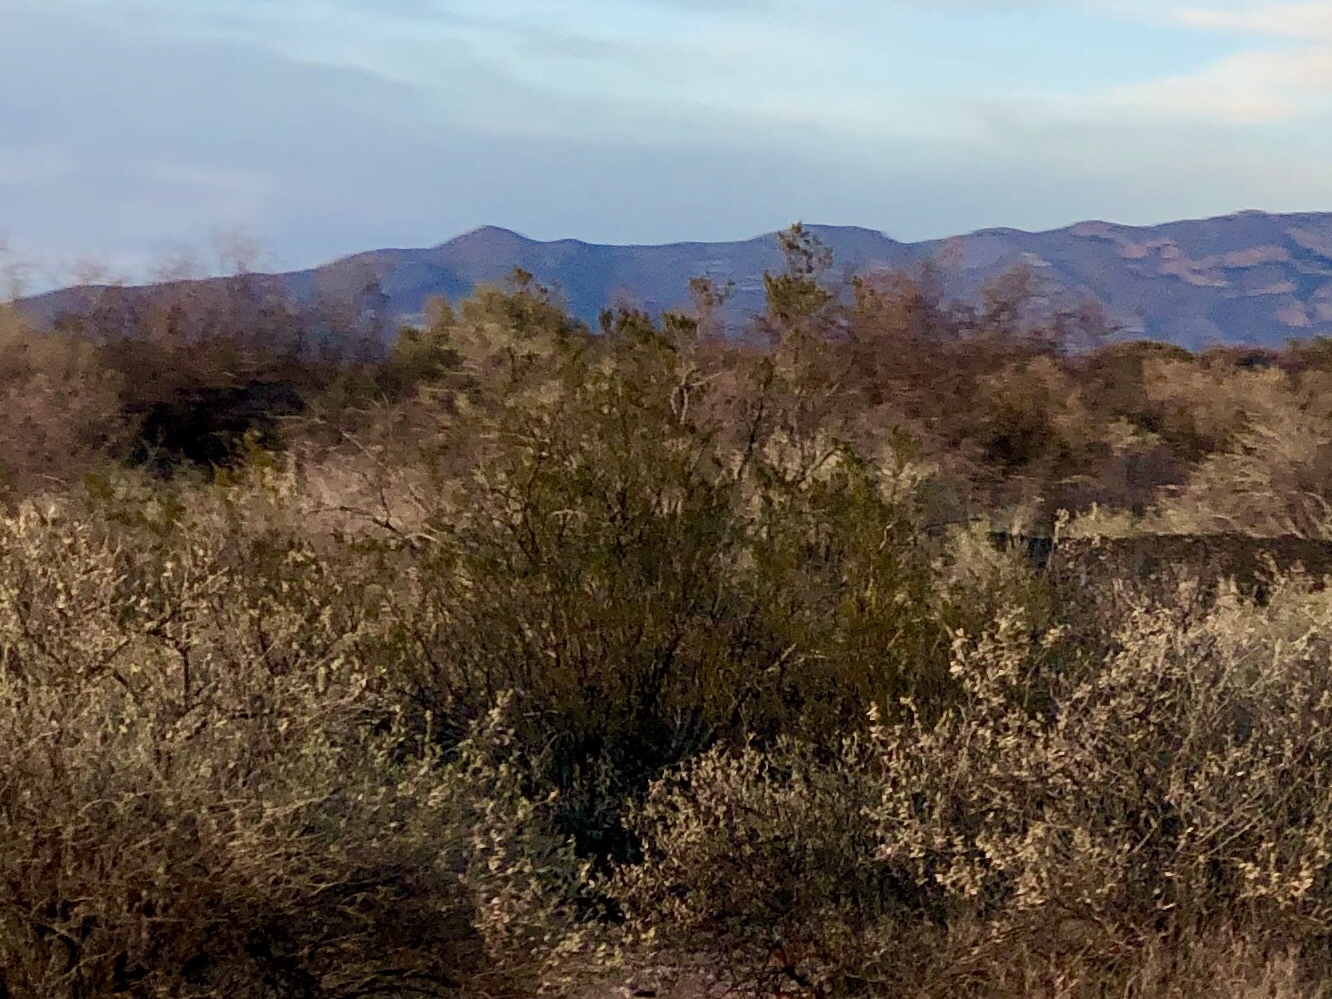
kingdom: Plantae
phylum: Tracheophyta
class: Magnoliopsida
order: Zygophyllales
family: Zygophyllaceae
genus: Larrea
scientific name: Larrea tridentata
